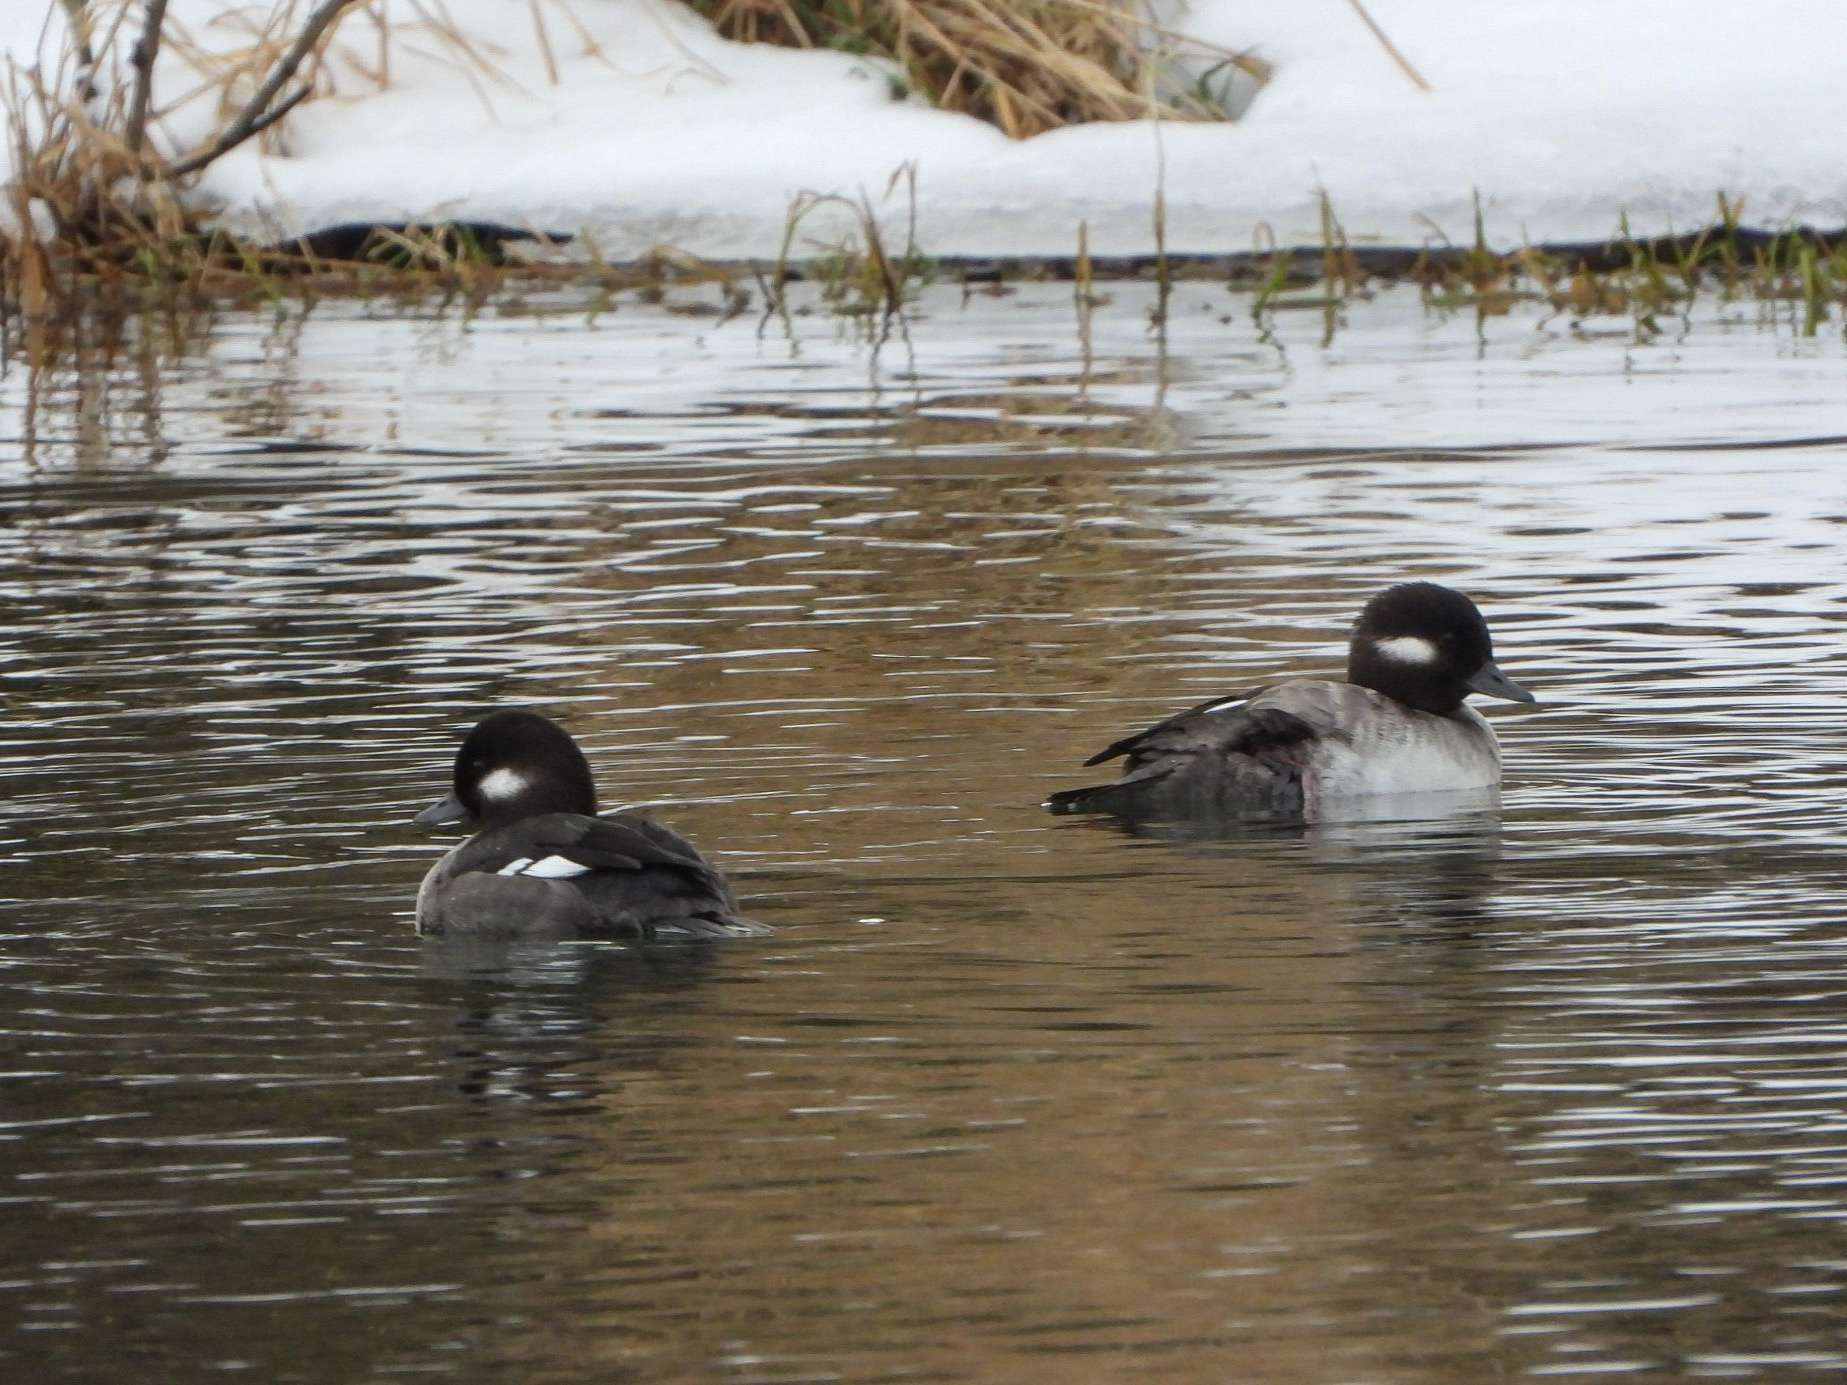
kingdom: Animalia
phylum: Chordata
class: Aves
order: Anseriformes
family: Anatidae
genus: Bucephala
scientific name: Bucephala albeola
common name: Bufflehead
